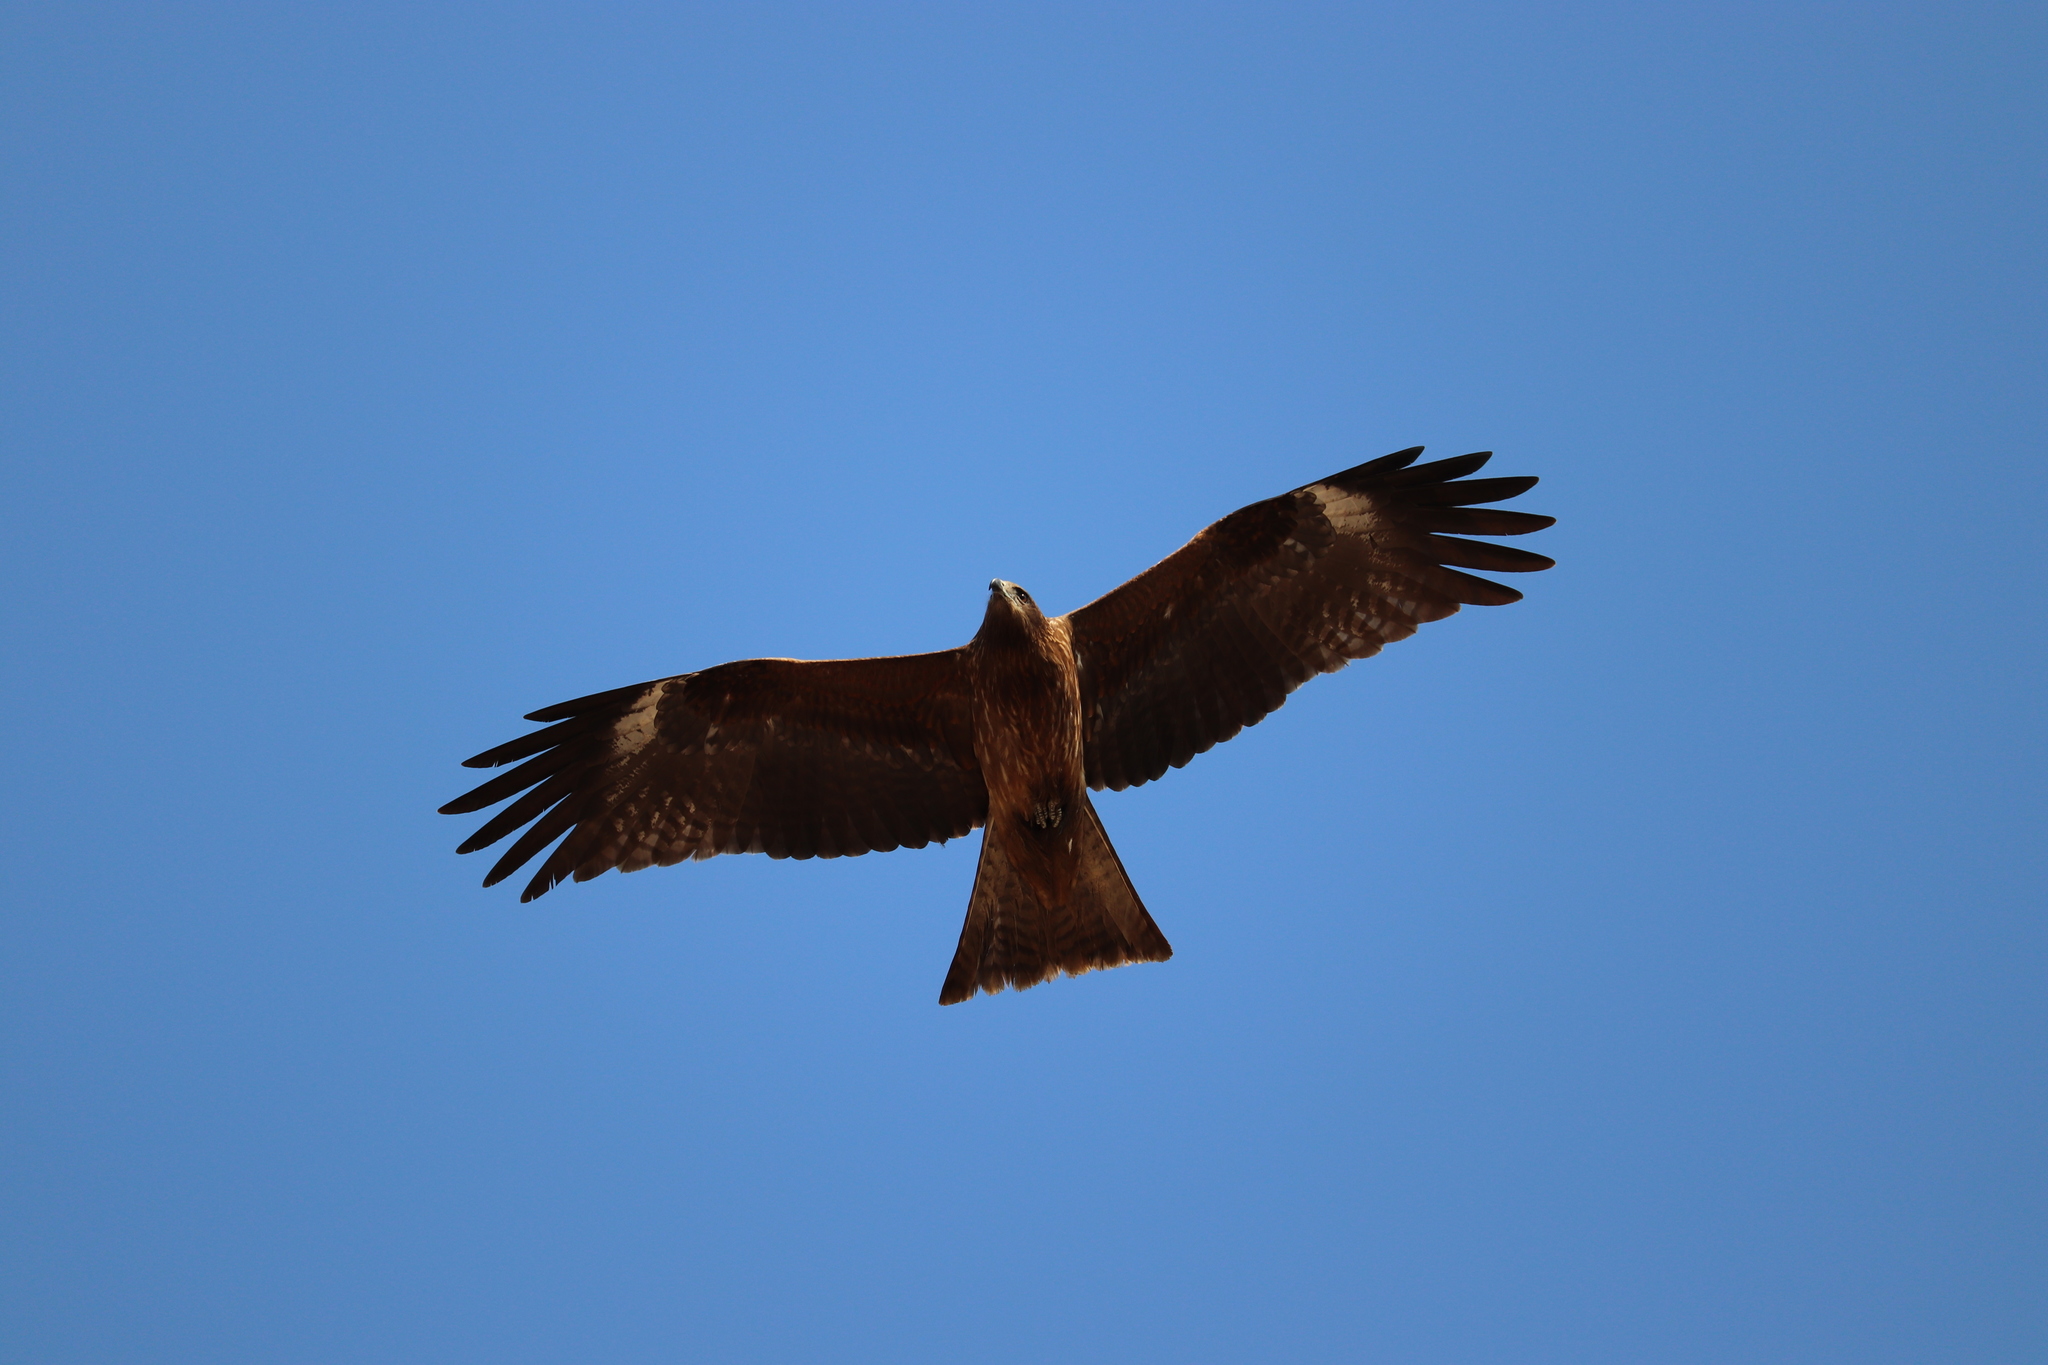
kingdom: Animalia
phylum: Chordata
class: Aves
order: Accipitriformes
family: Accipitridae
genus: Milvus
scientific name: Milvus migrans
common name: Black kite
